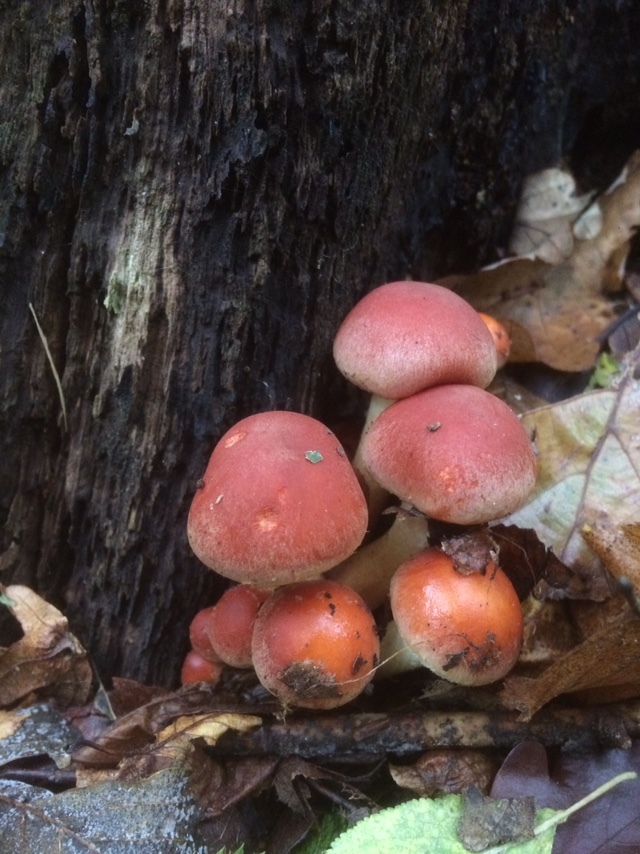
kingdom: Fungi
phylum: Basidiomycota
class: Agaricomycetes
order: Agaricales
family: Strophariaceae
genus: Hypholoma
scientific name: Hypholoma lateritium
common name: Brick caps
